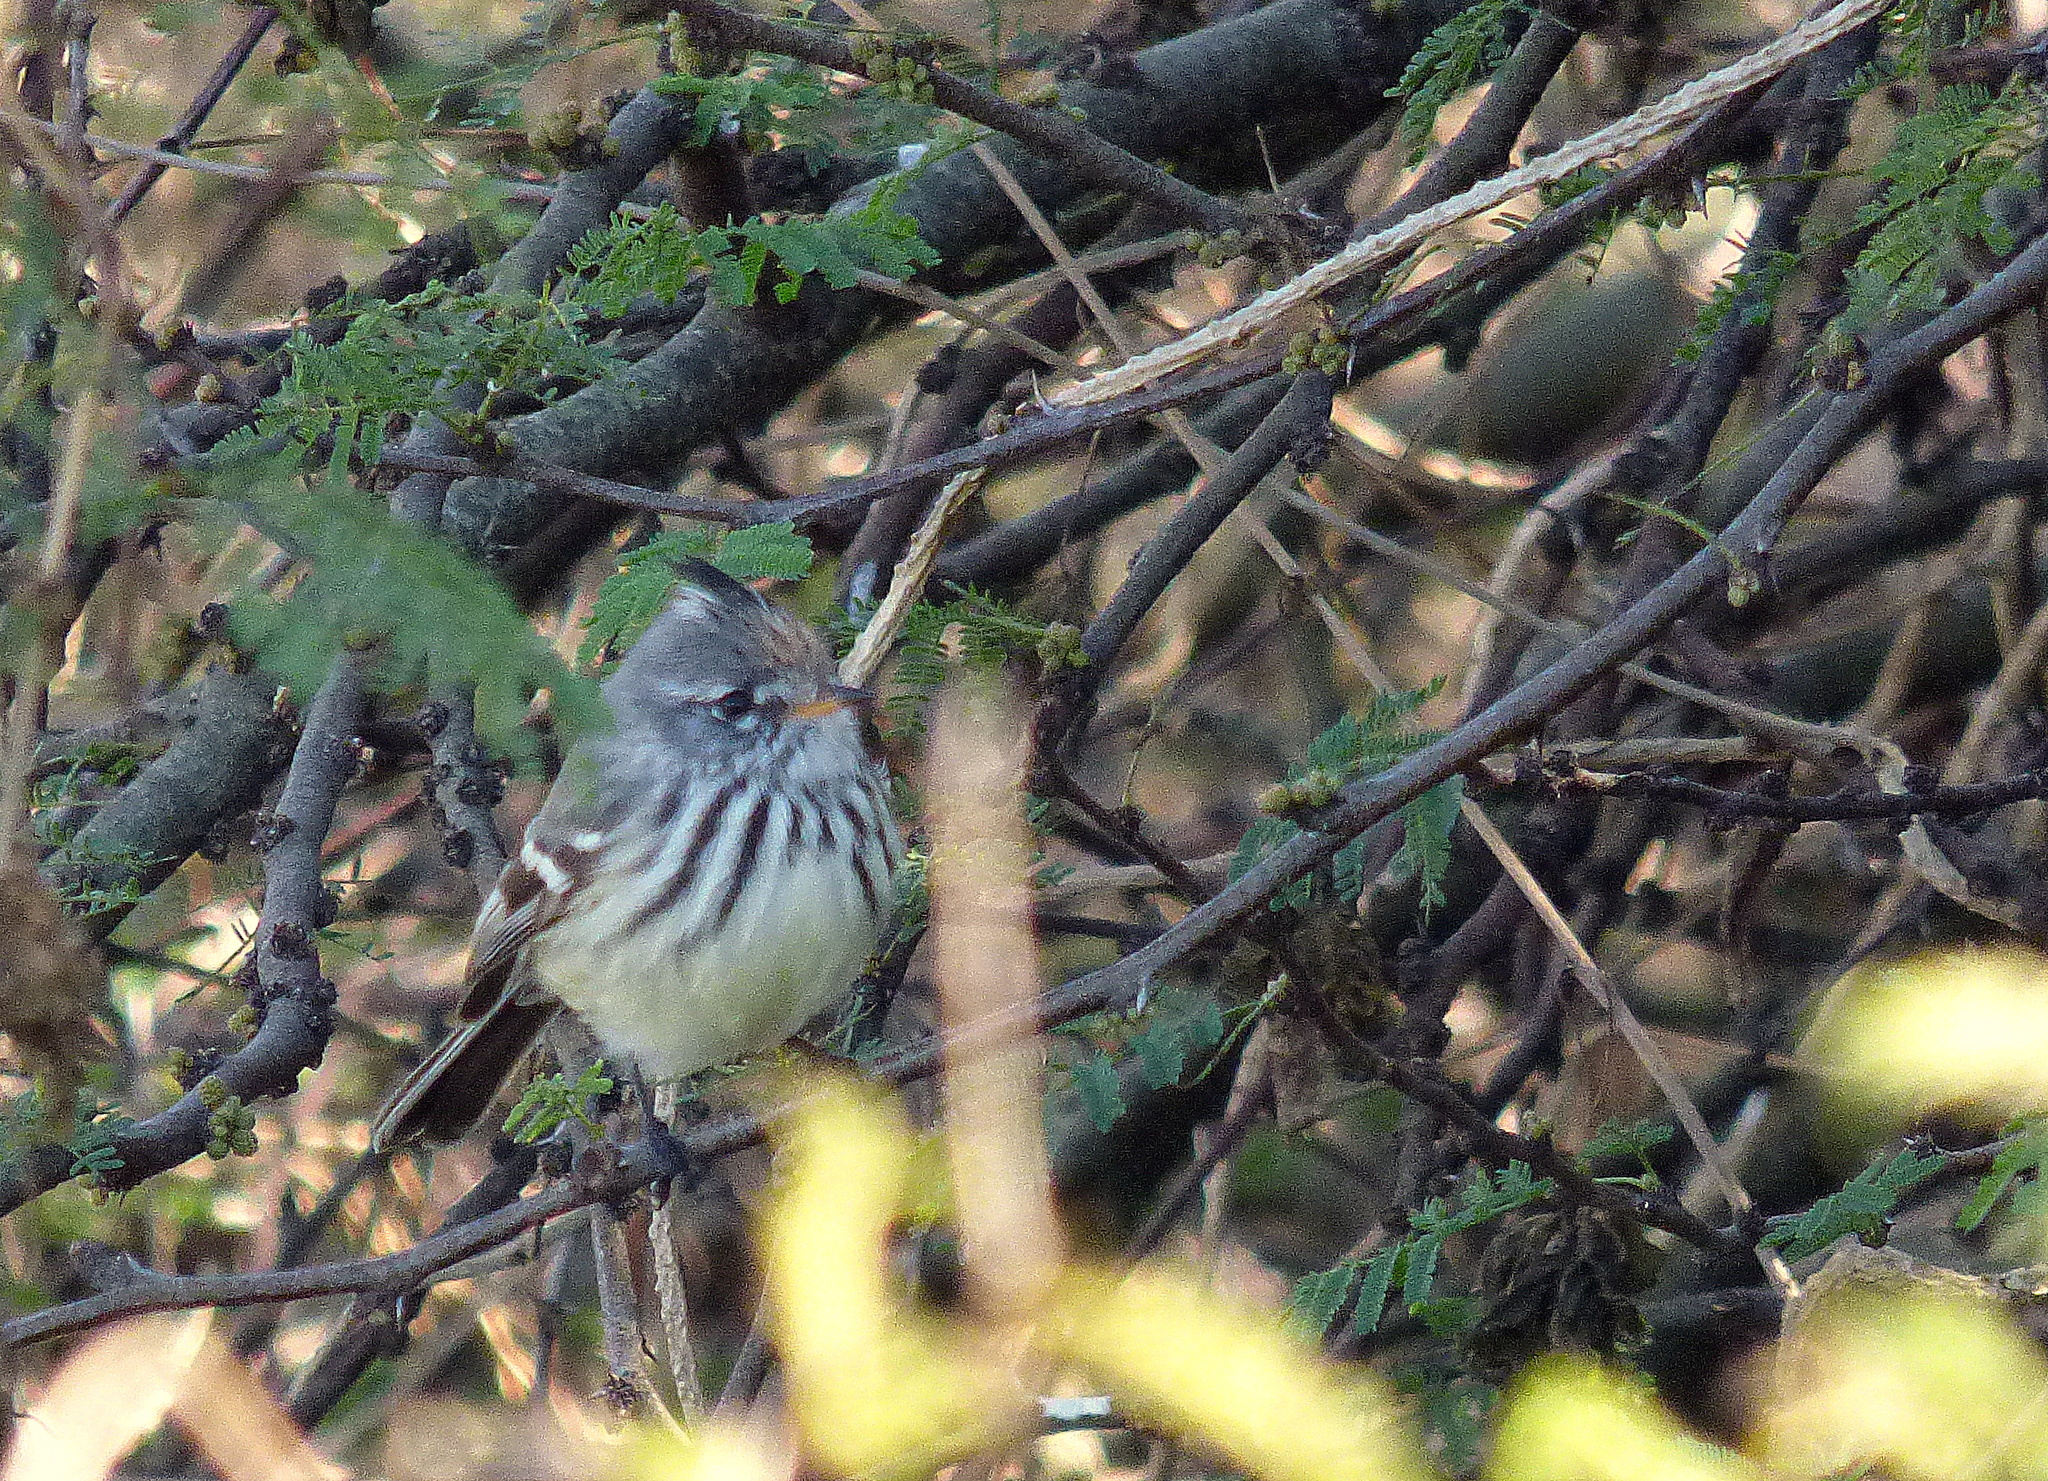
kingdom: Animalia
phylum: Chordata
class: Aves
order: Passeriformes
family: Tyrannidae
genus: Anairetes
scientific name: Anairetes flavirostris
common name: Yellow-billed tit-tyrant
